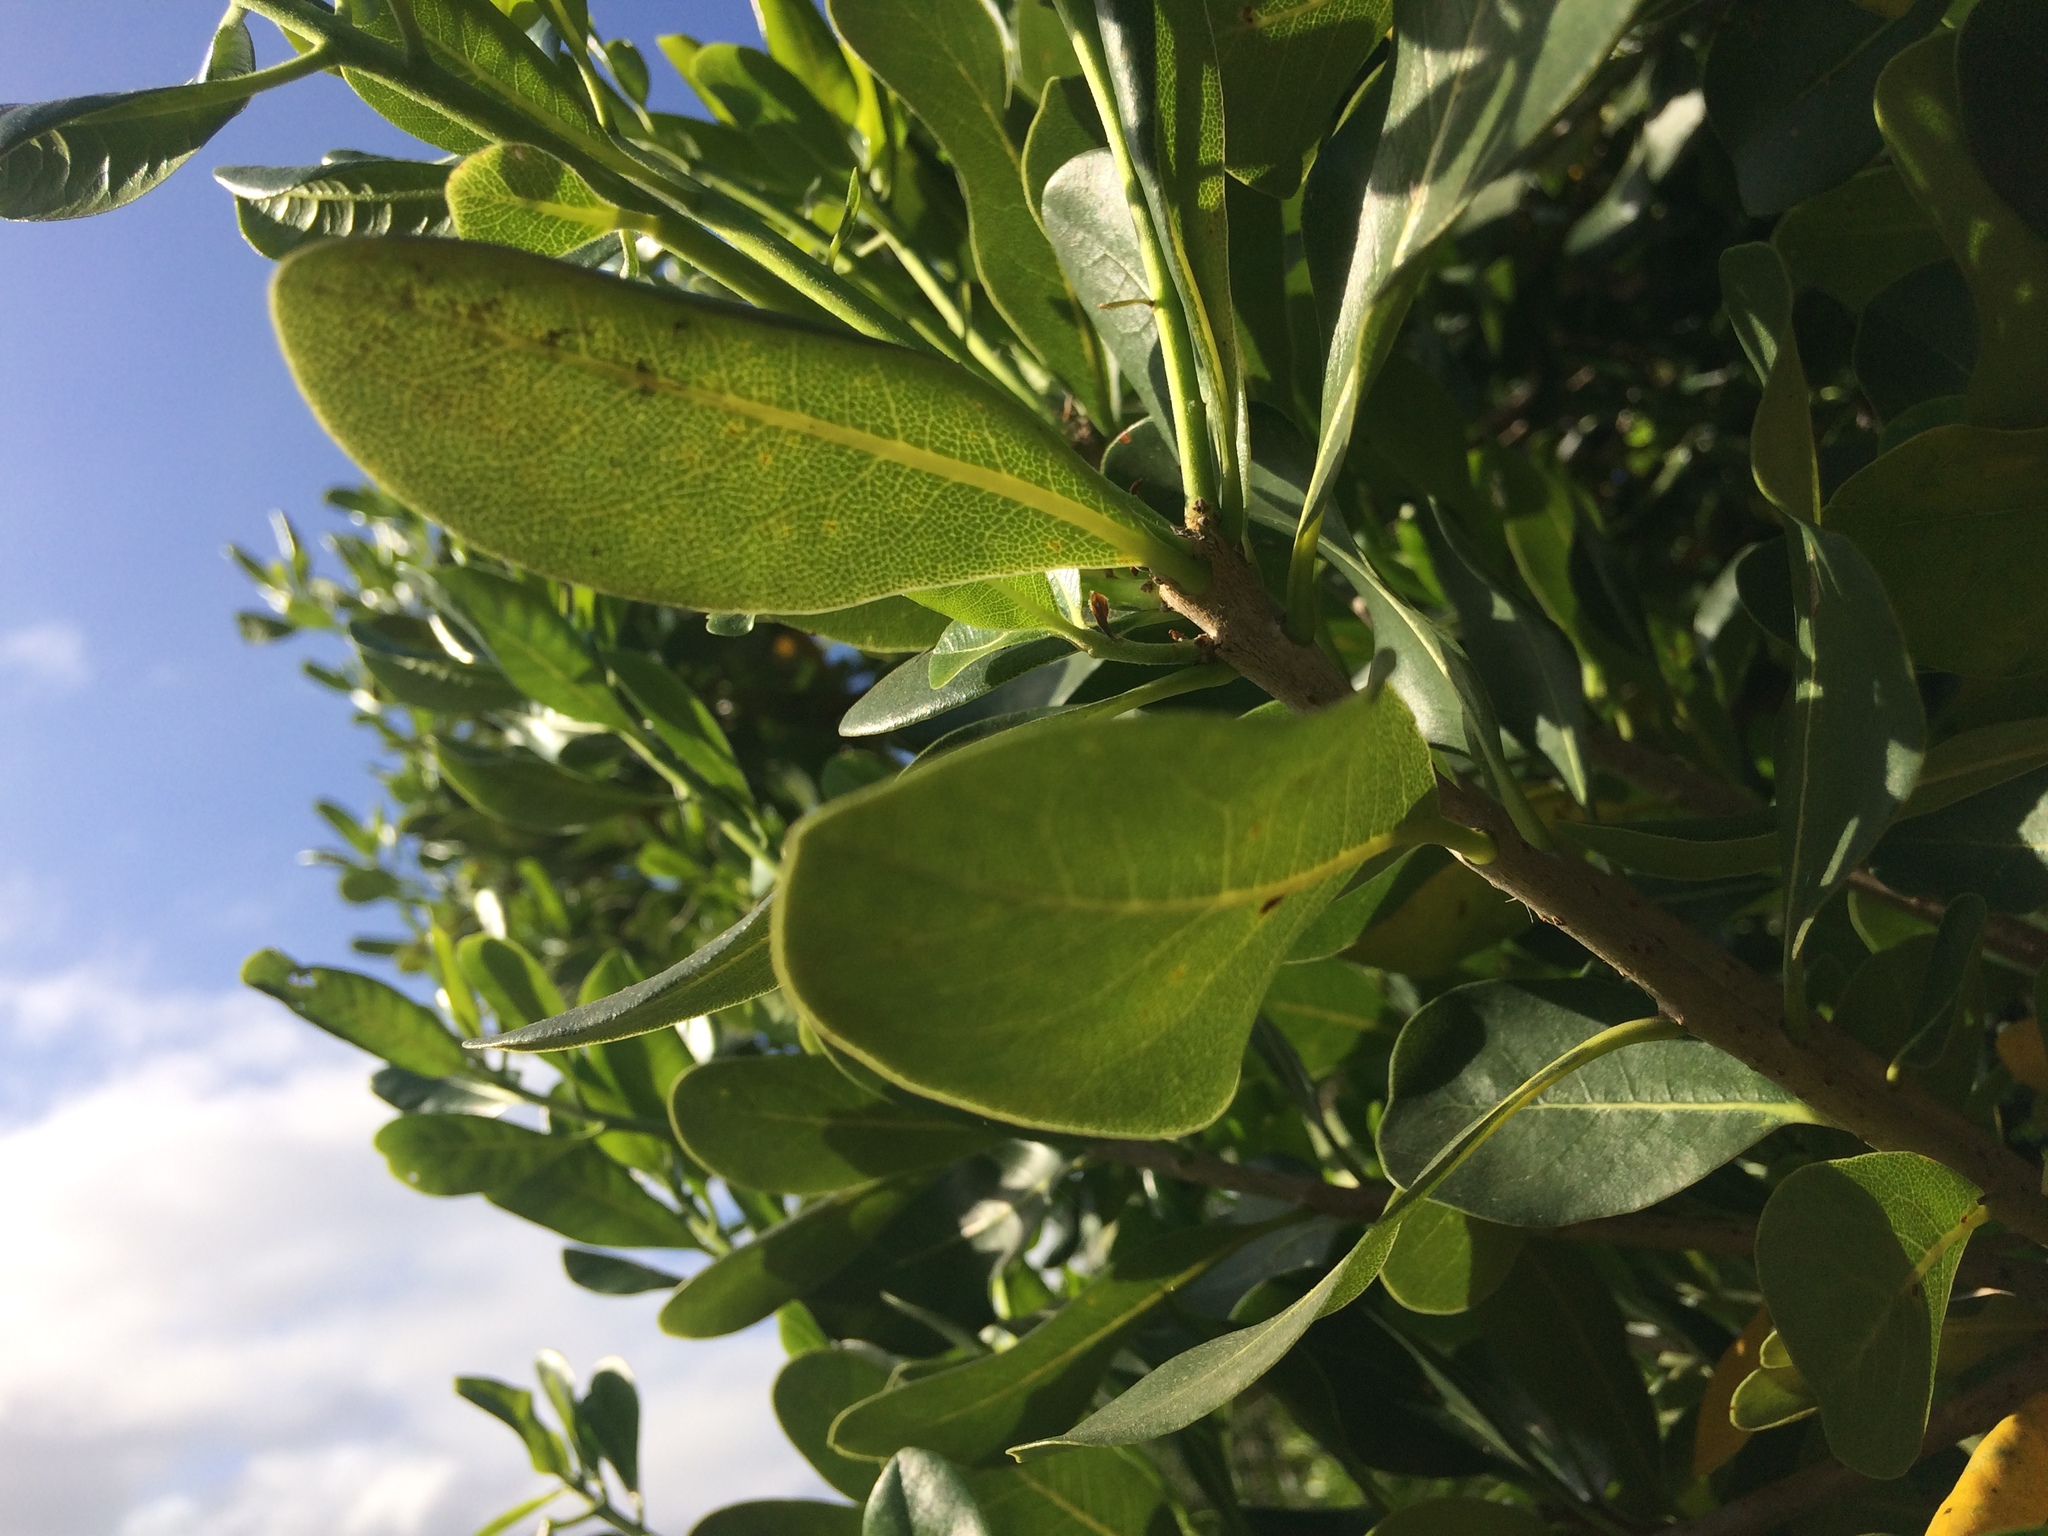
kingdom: Plantae
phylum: Tracheophyta
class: Magnoliopsida
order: Apiales
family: Pittosporaceae
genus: Pittosporum
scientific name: Pittosporum viridiflorum
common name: Cape cheesewood
